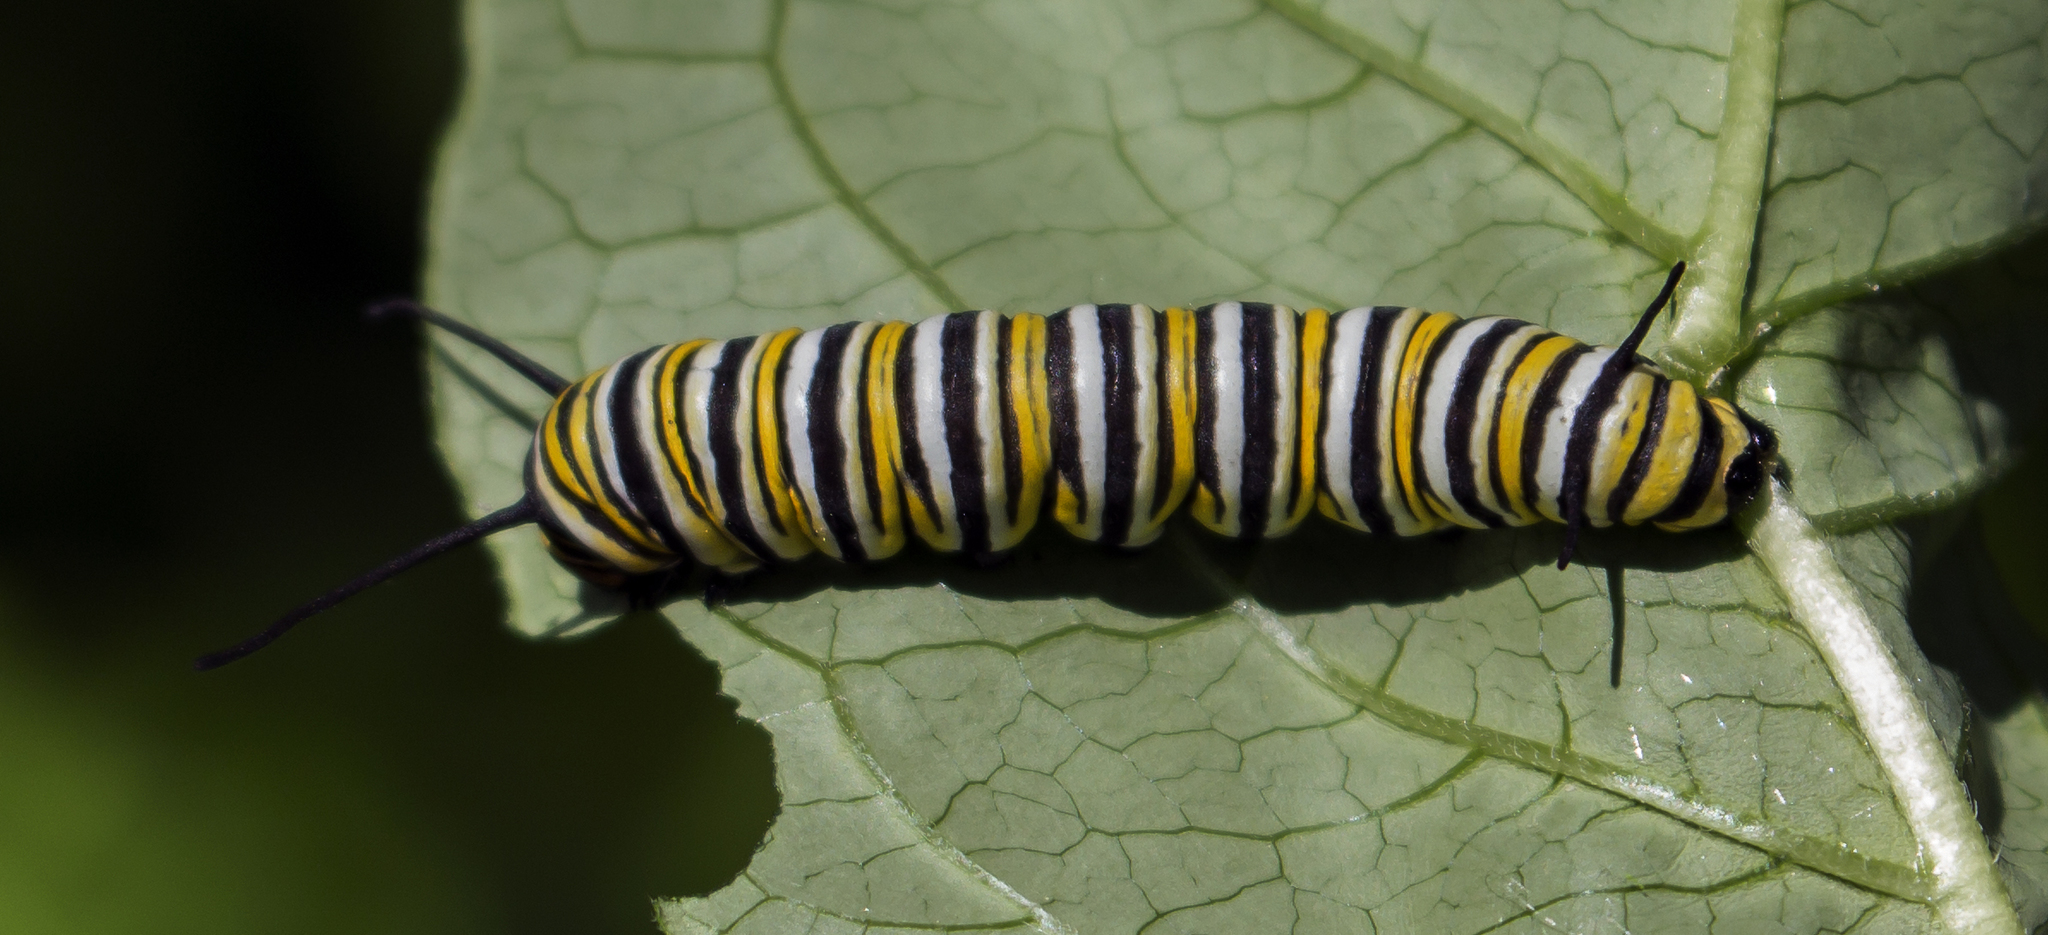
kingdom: Animalia
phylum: Arthropoda
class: Insecta
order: Lepidoptera
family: Nymphalidae
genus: Danaus
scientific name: Danaus plexippus
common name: Monarch
